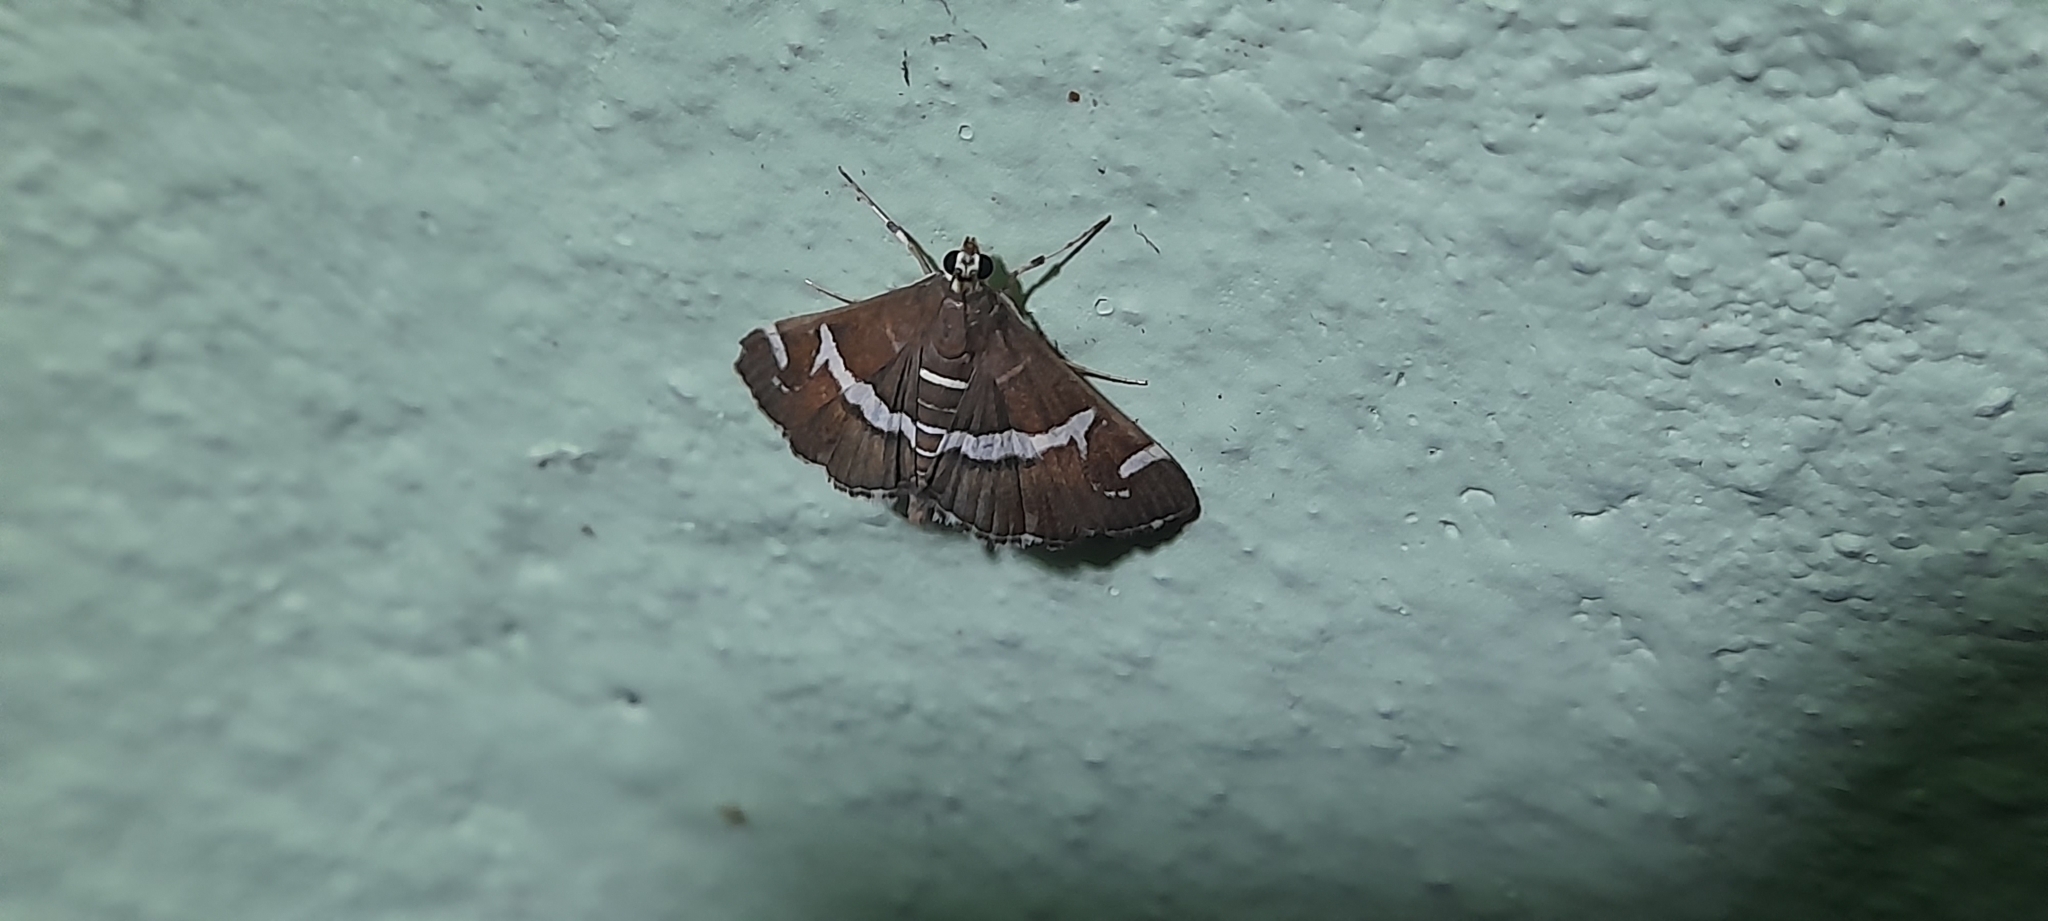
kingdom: Animalia
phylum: Arthropoda
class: Insecta
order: Lepidoptera
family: Crambidae
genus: Spoladea
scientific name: Spoladea recurvalis
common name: Beet webworm moth
